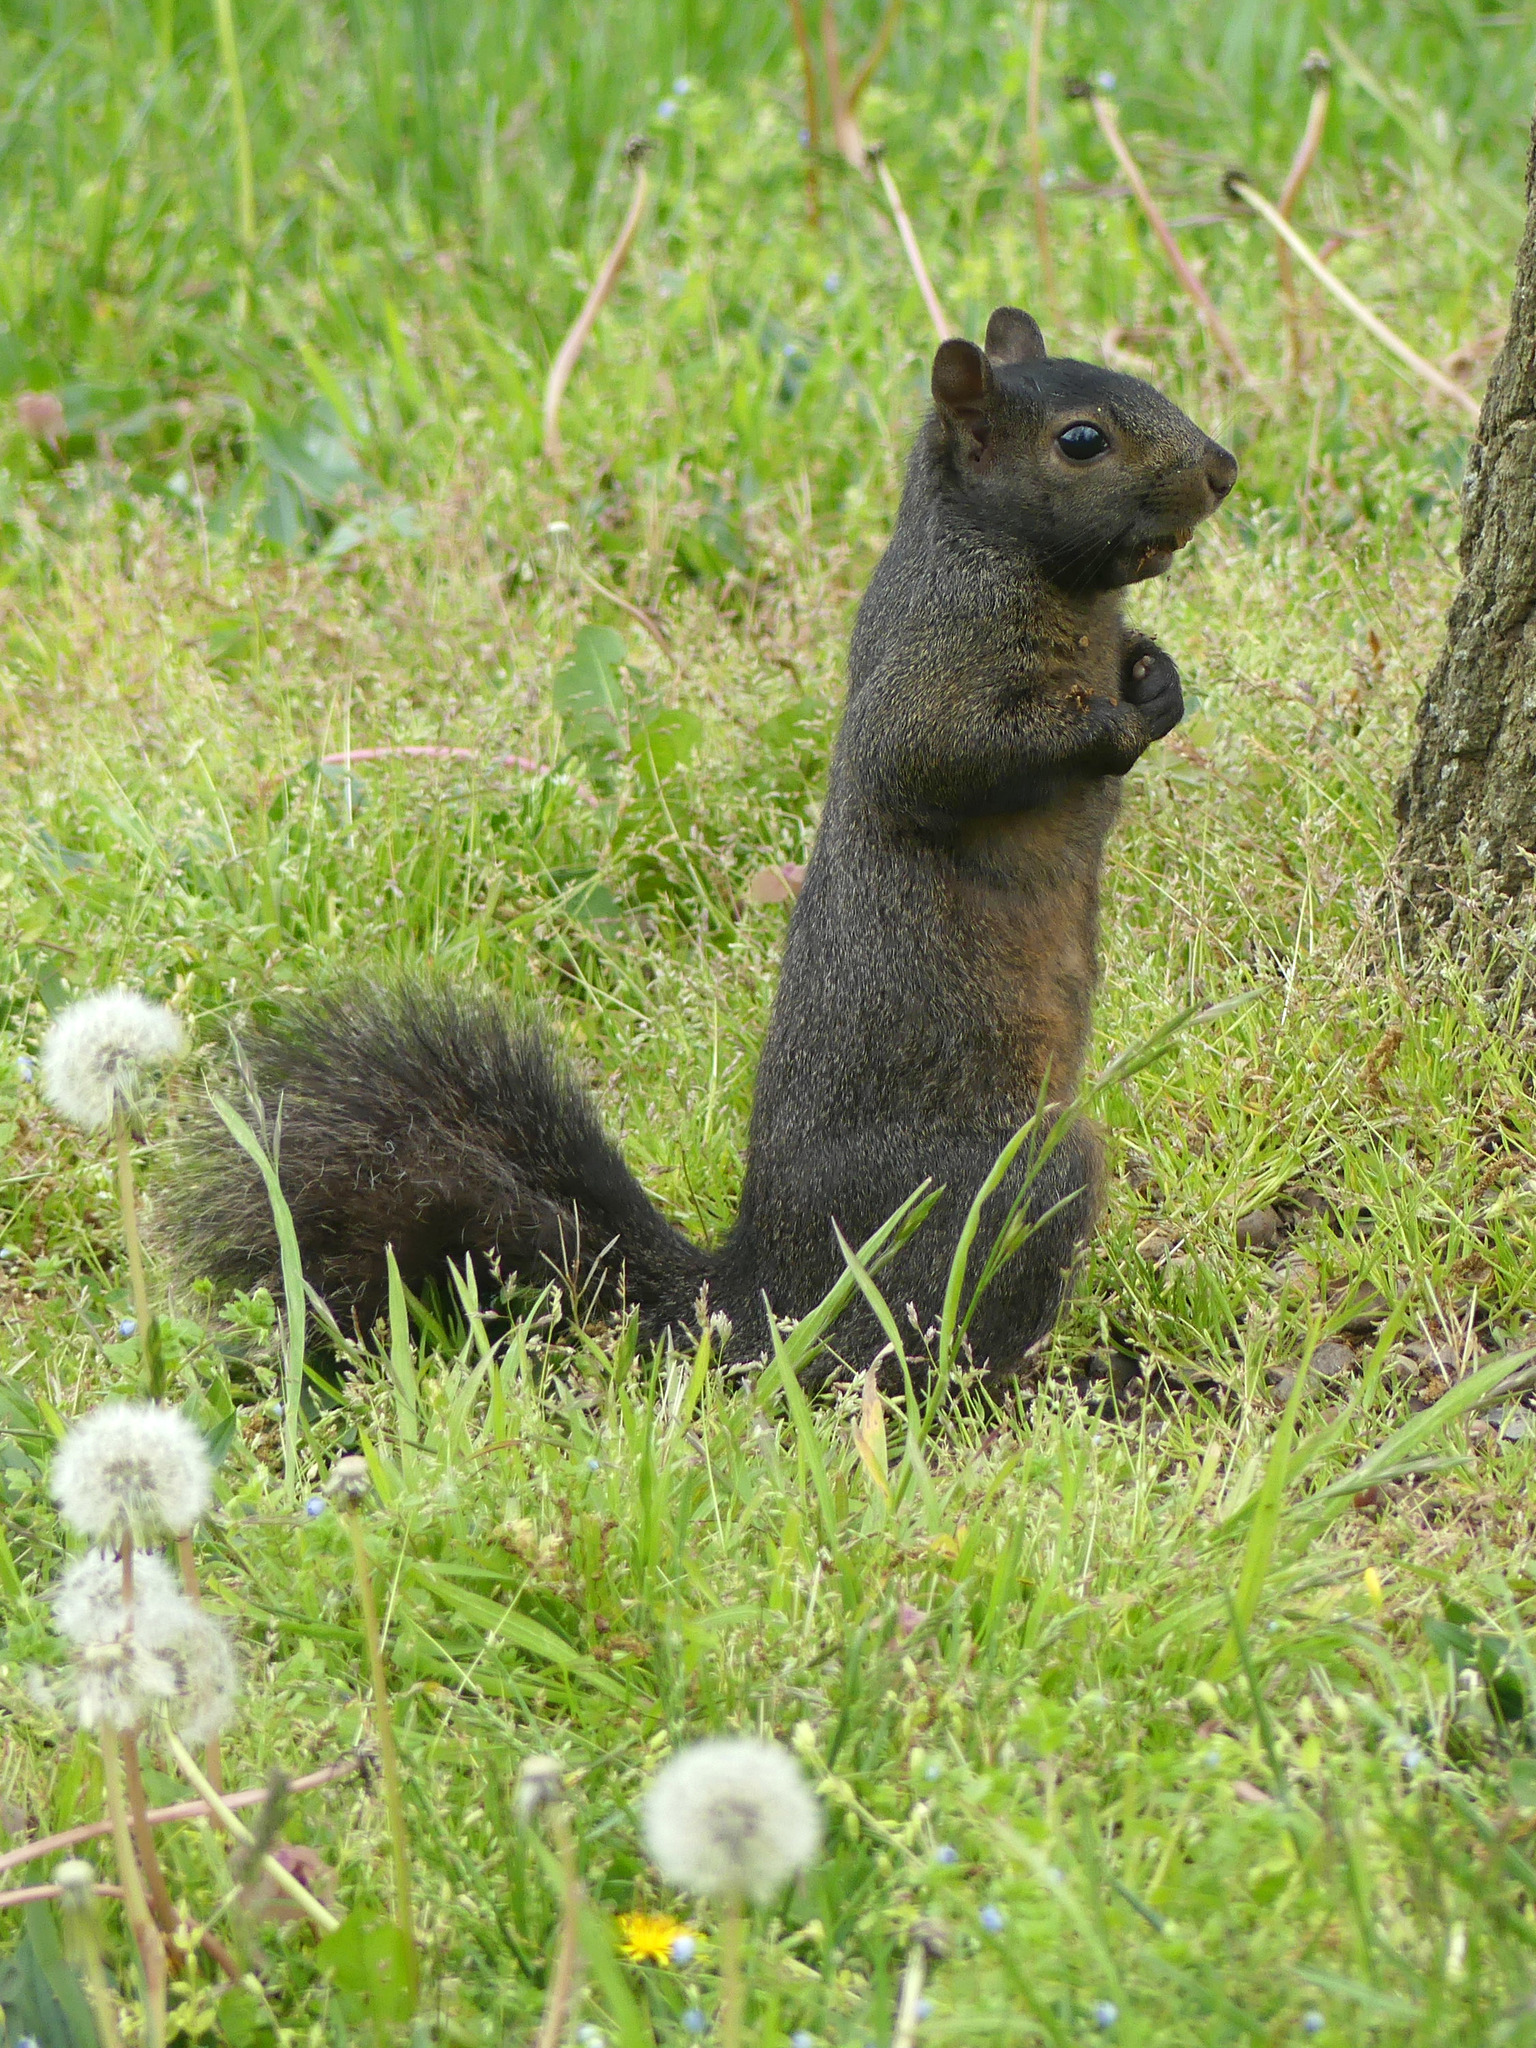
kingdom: Animalia
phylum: Chordata
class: Mammalia
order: Rodentia
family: Sciuridae
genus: Sciurus
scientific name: Sciurus carolinensis
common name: Eastern gray squirrel
